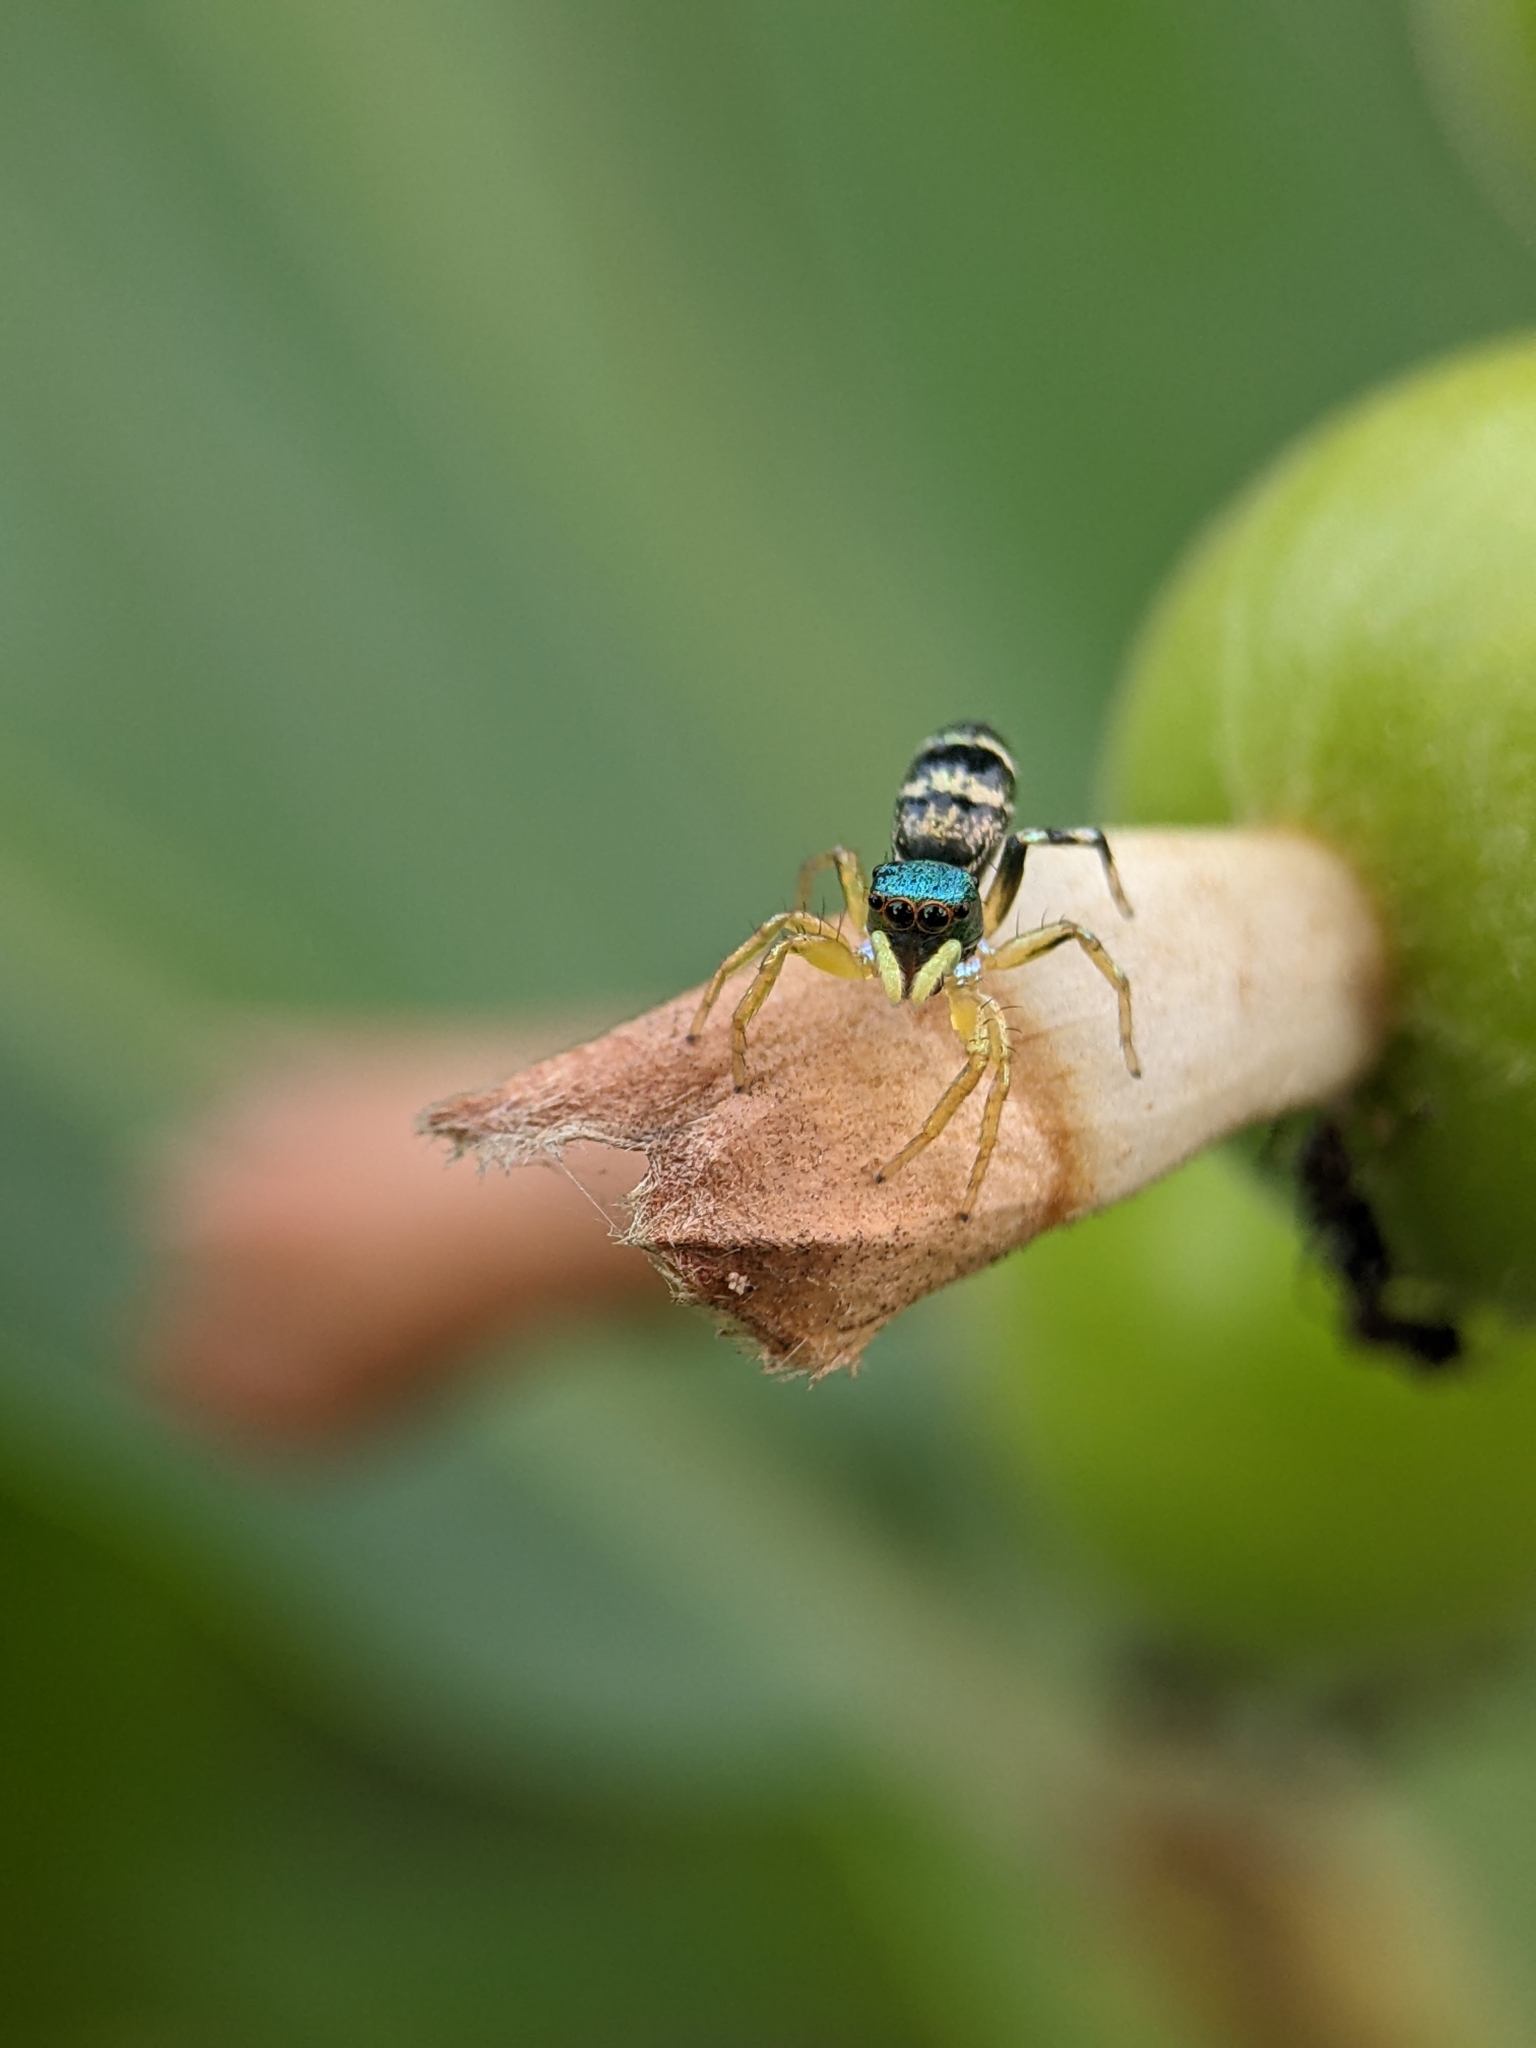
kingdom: Animalia
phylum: Arthropoda
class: Arachnida
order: Araneae
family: Salticidae
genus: Cosmophasis
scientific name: Cosmophasis thalassina
